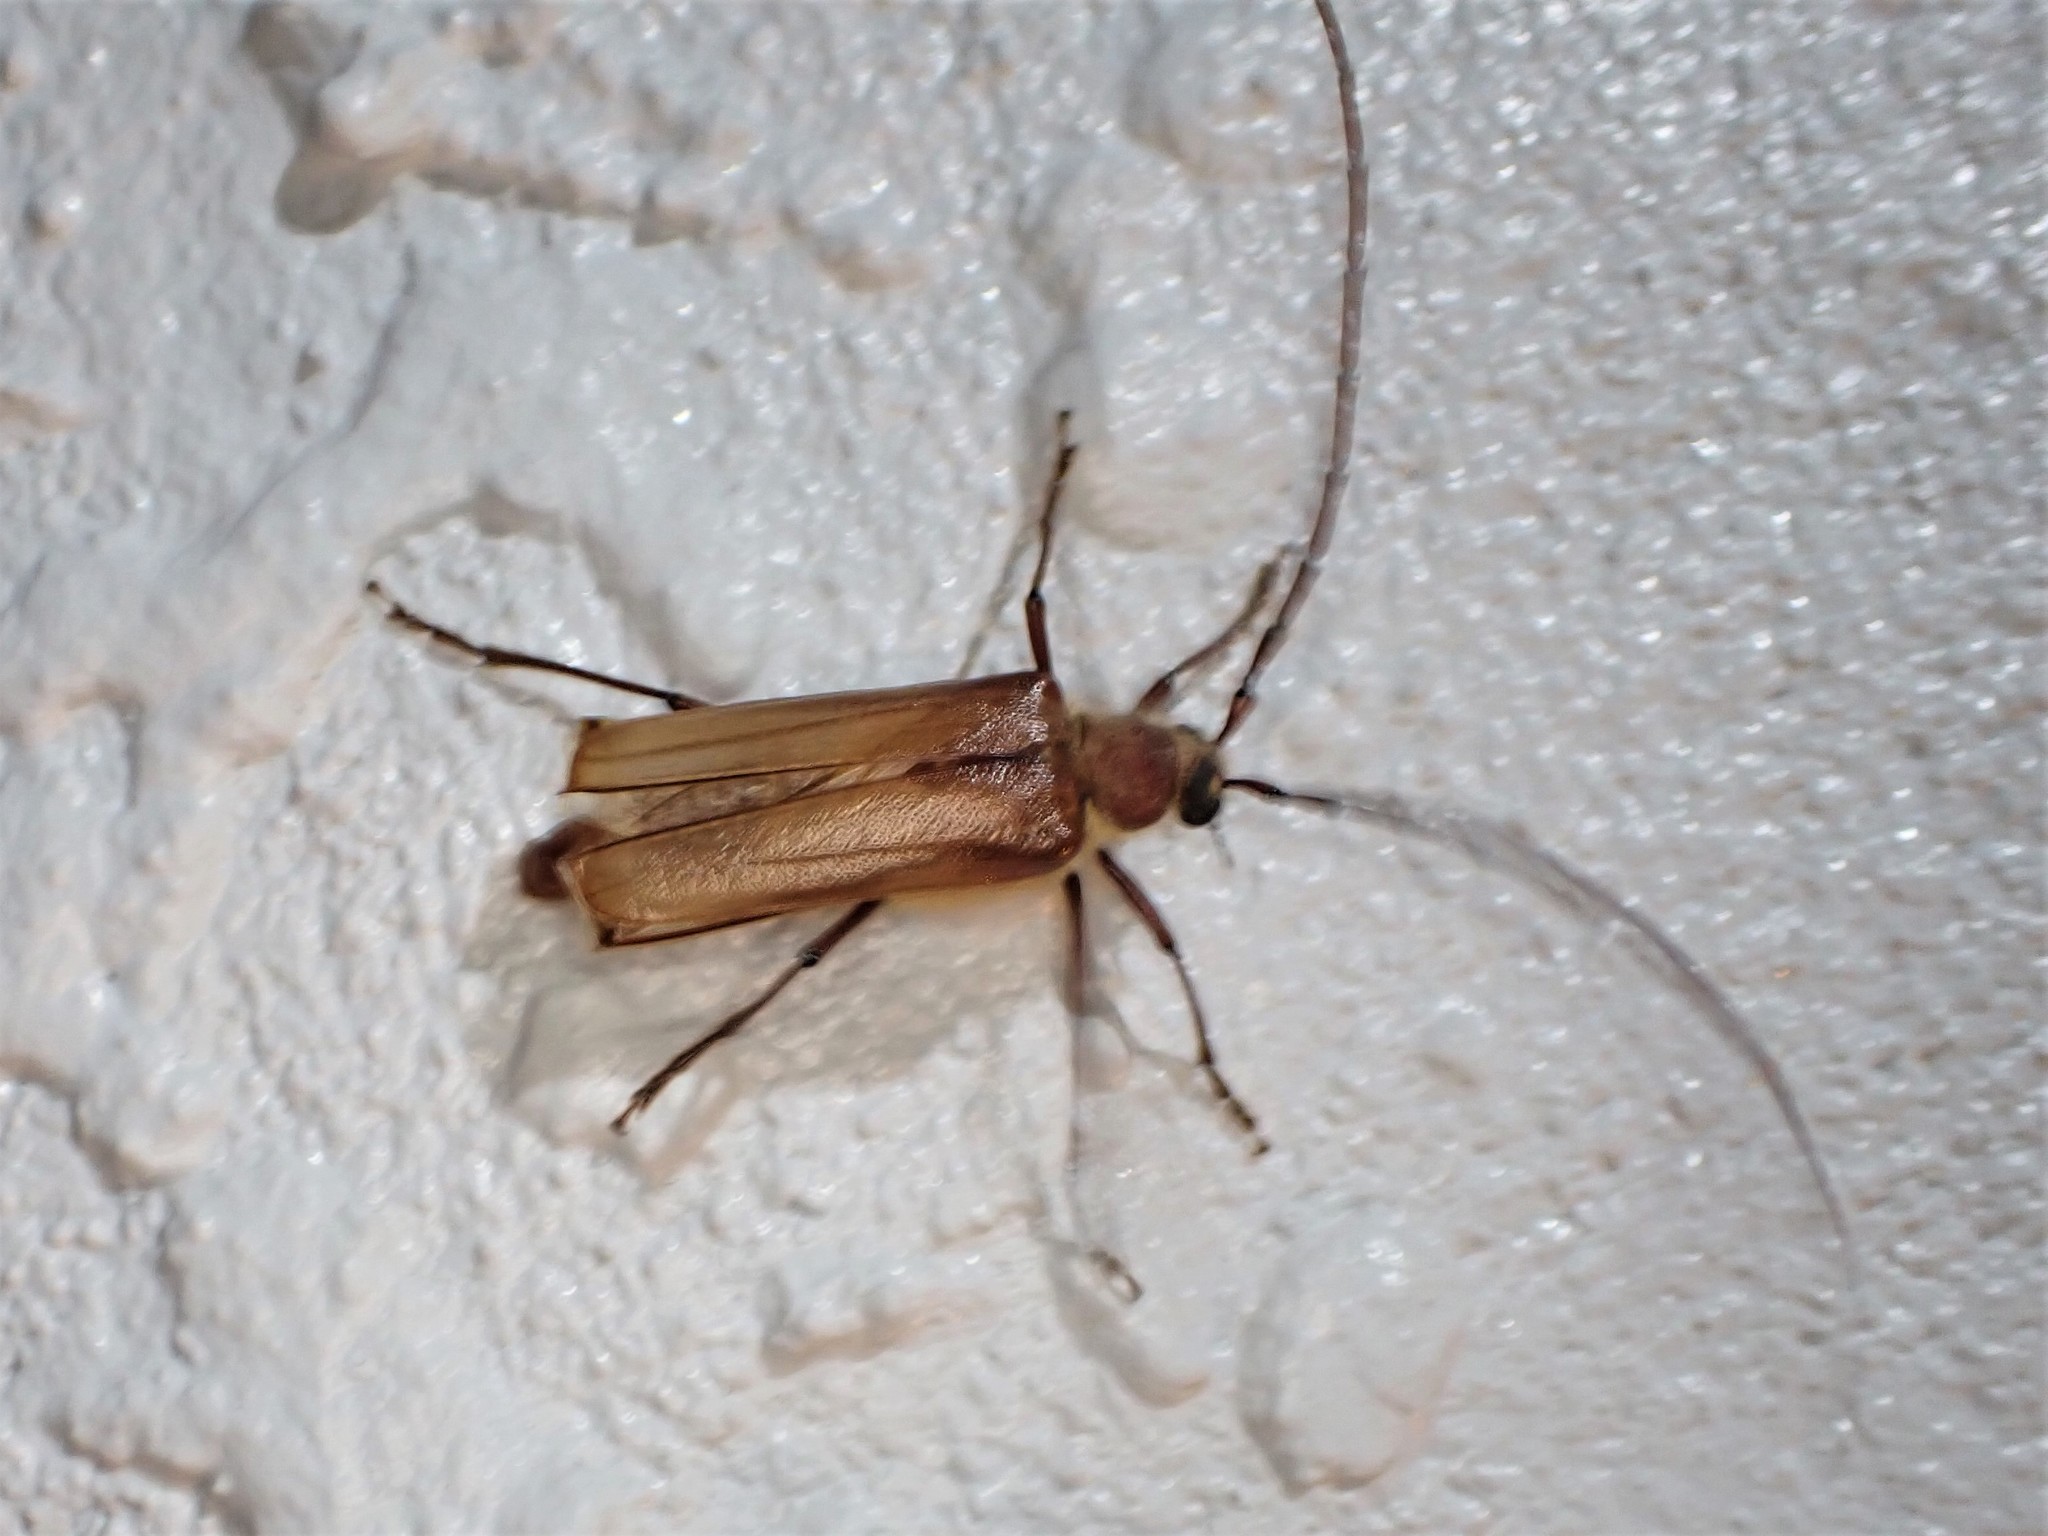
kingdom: Animalia
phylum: Arthropoda
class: Insecta
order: Coleoptera
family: Cerambycidae
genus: Ochrocydus
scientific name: Ochrocydus huttoni
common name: Kanuka longhorn
